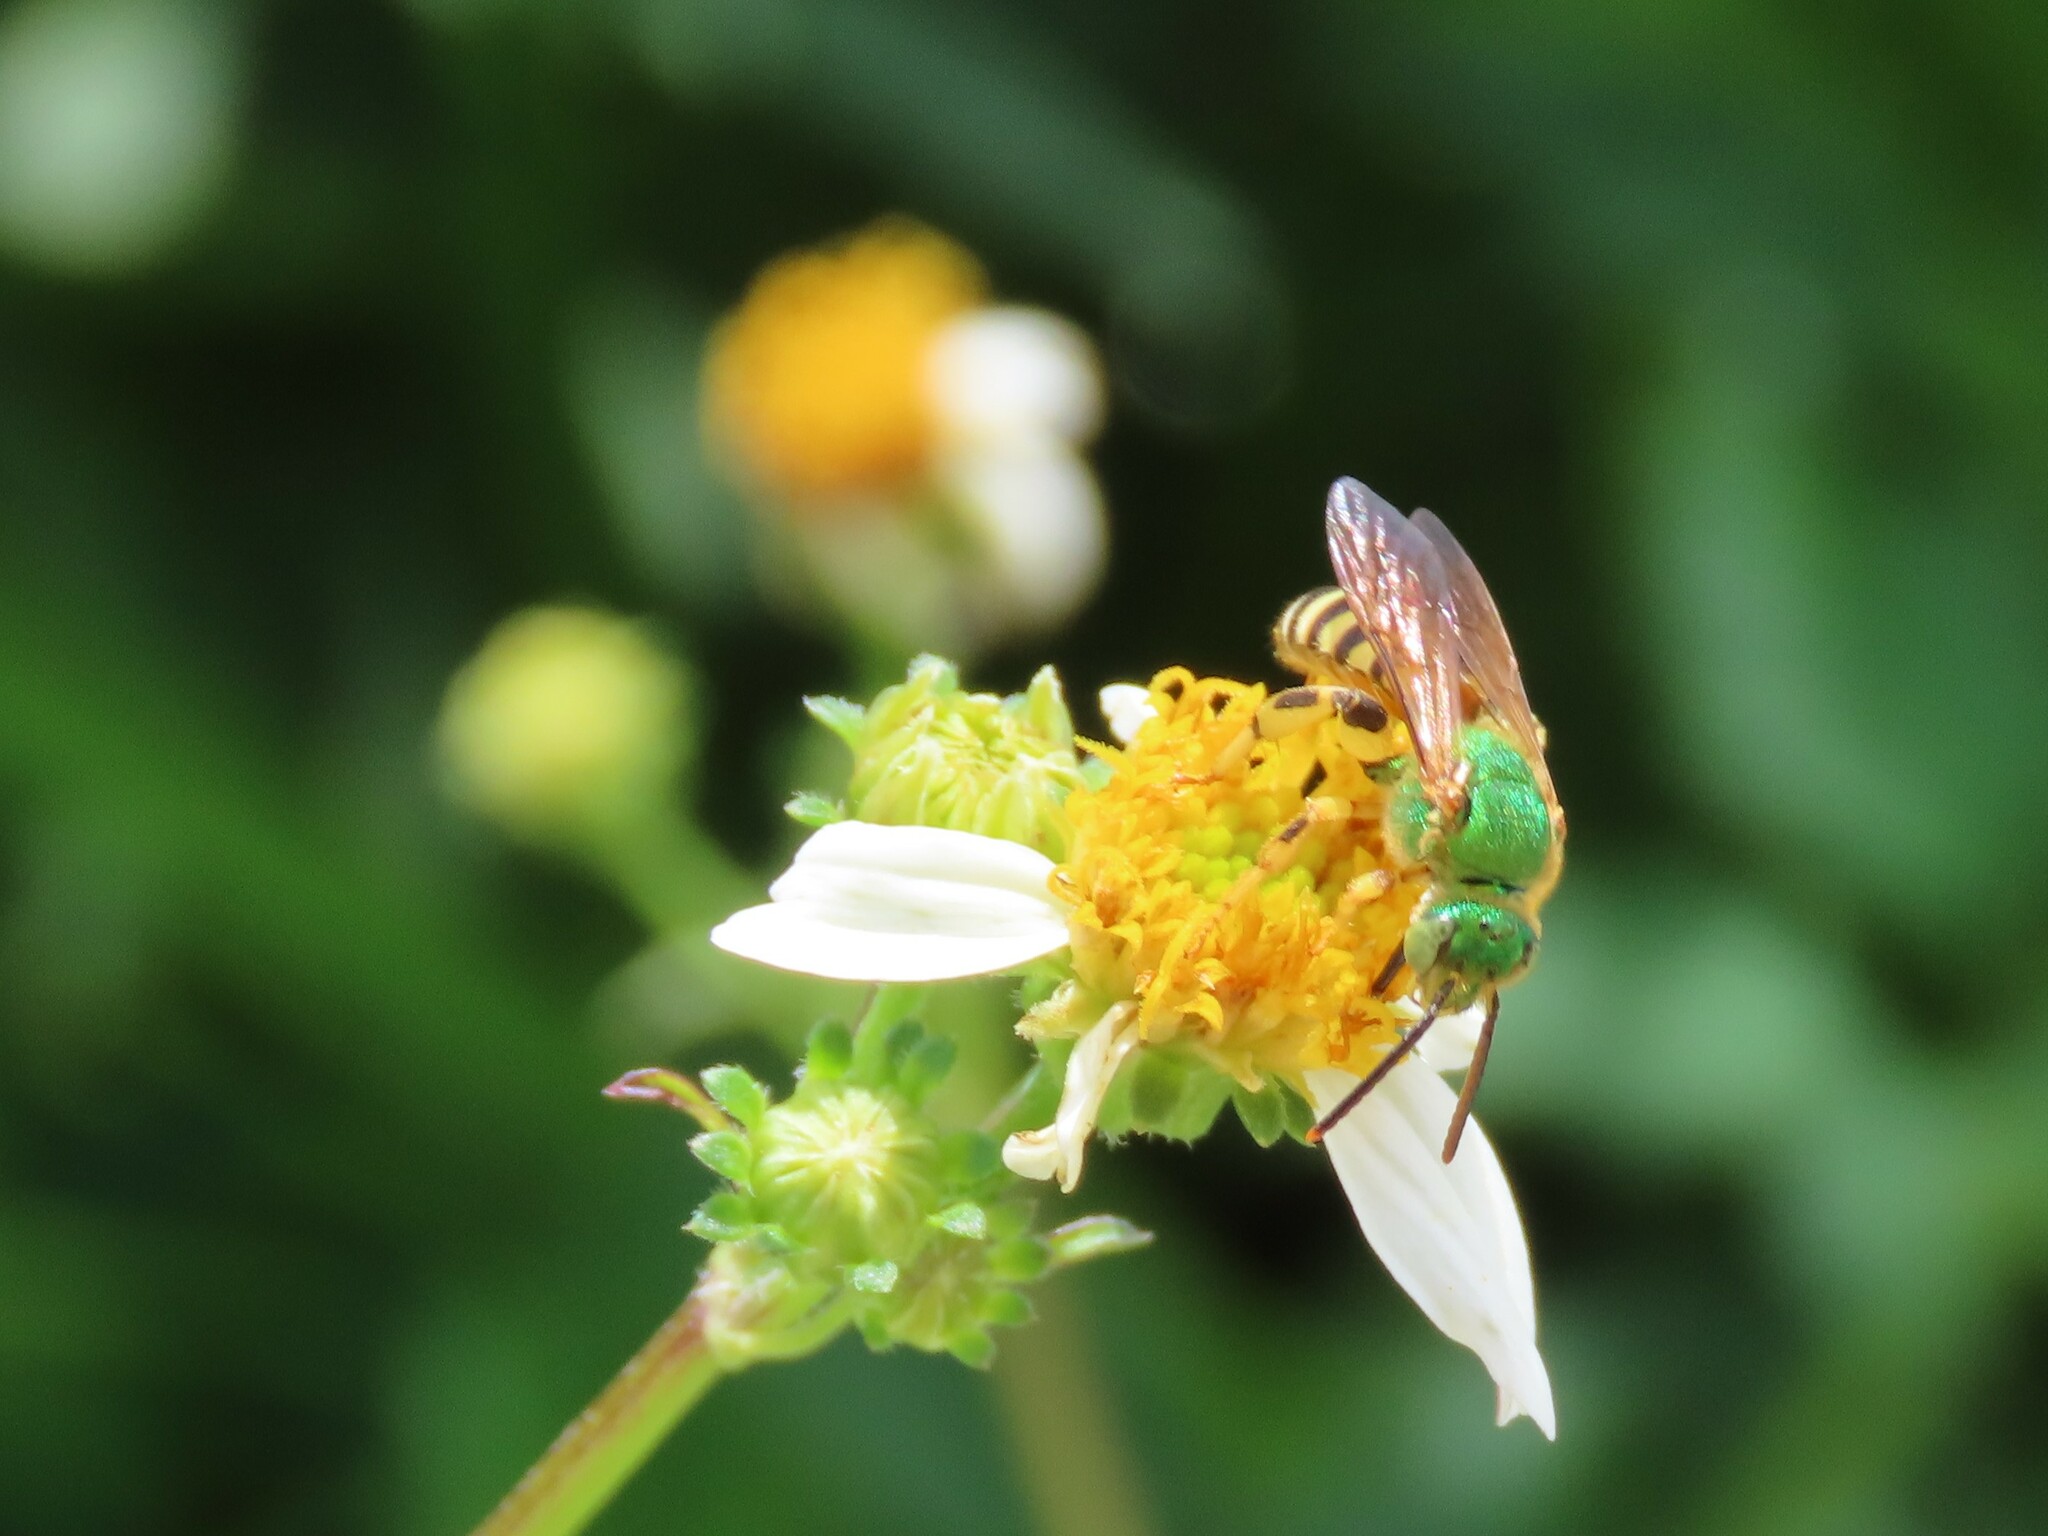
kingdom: Animalia
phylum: Arthropoda
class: Insecta
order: Hymenoptera
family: Halictidae
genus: Agapostemon
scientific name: Agapostemon splendens
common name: Brown-winged striped sweat bee
